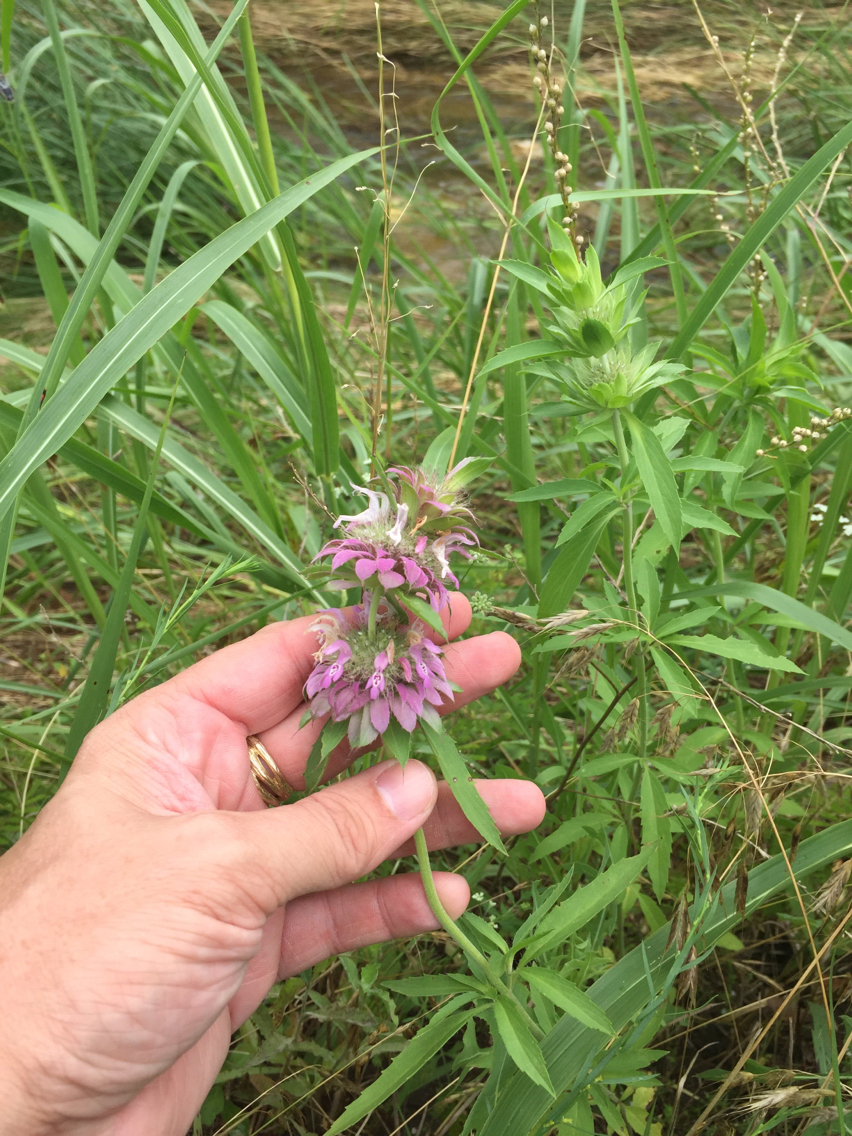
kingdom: Plantae
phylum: Tracheophyta
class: Magnoliopsida
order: Lamiales
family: Lamiaceae
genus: Monarda
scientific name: Monarda citriodora
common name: Lemon beebalm
